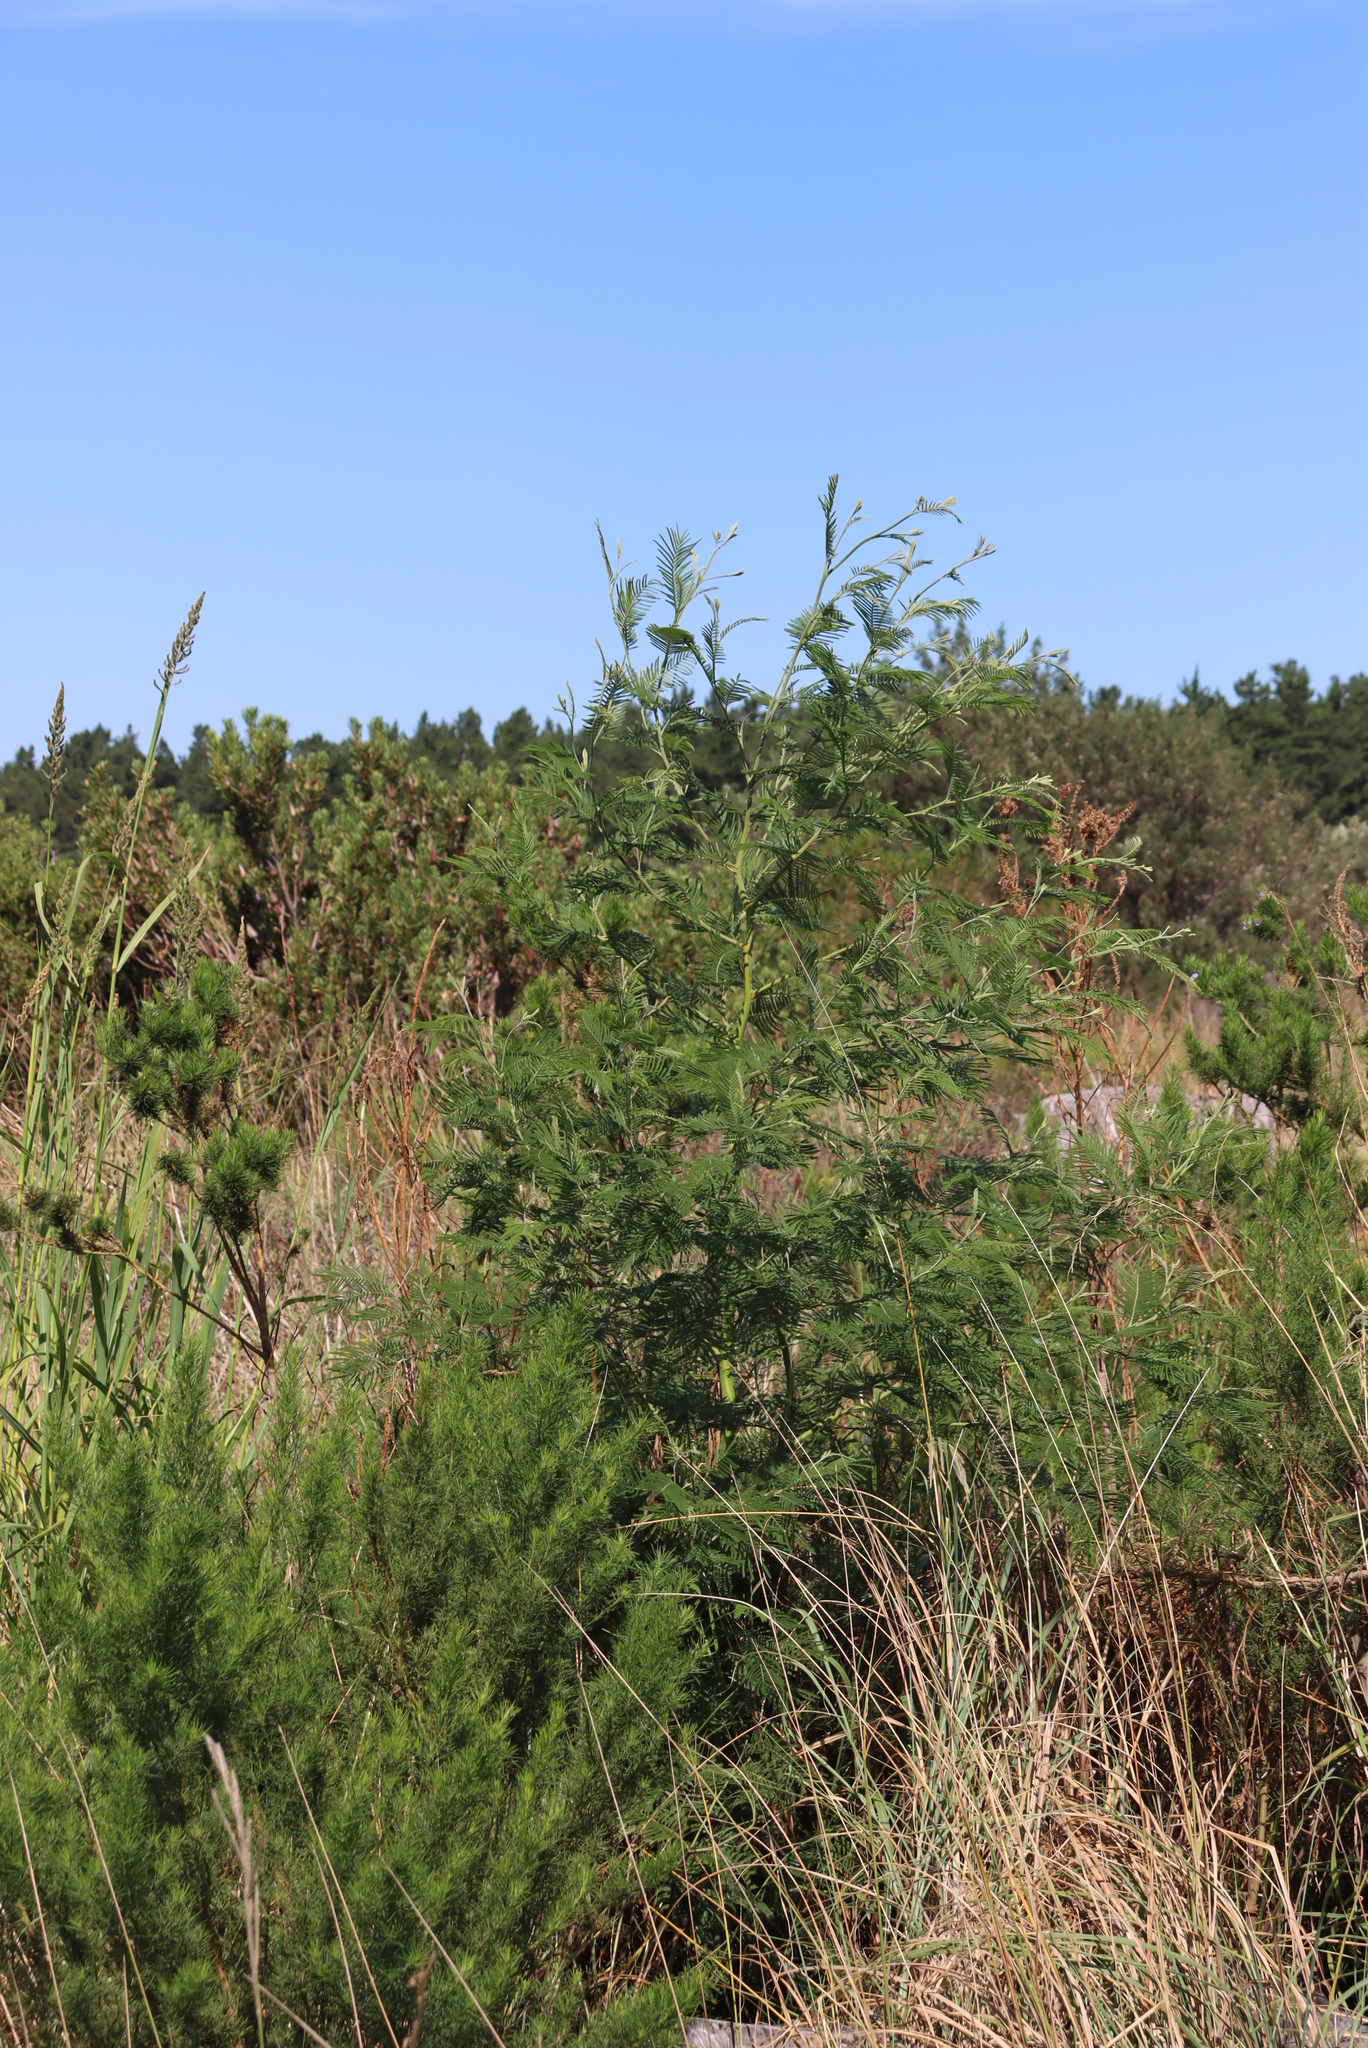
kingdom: Plantae
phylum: Tracheophyta
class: Magnoliopsida
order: Fabales
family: Fabaceae
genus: Acacia
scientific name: Acacia mearnsii
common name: Black wattle
